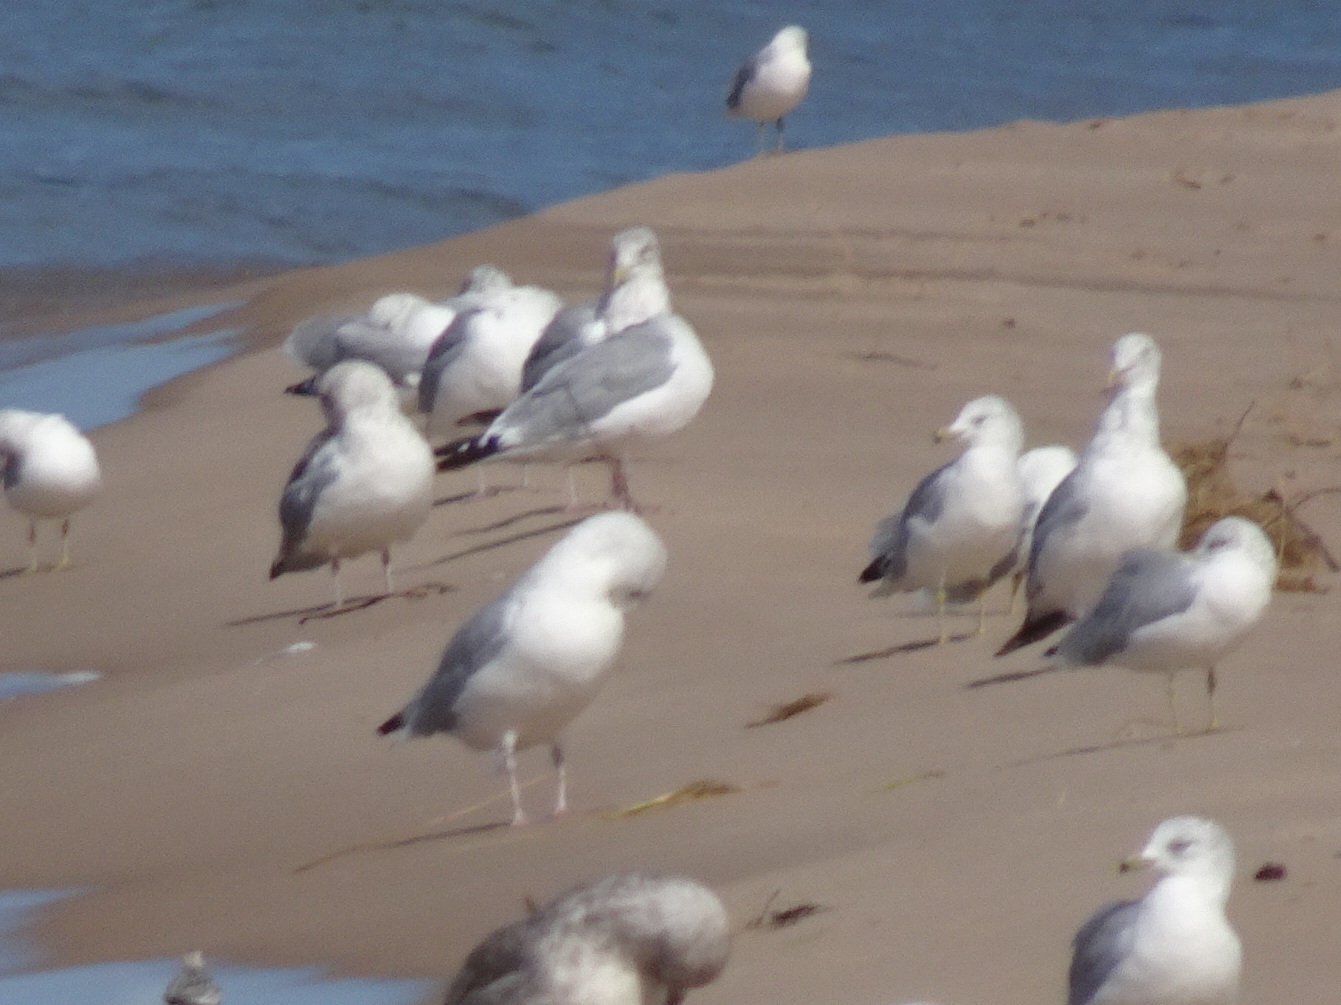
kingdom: Animalia
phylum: Chordata
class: Aves
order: Charadriiformes
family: Laridae
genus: Larus
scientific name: Larus argentatus
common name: Herring gull
